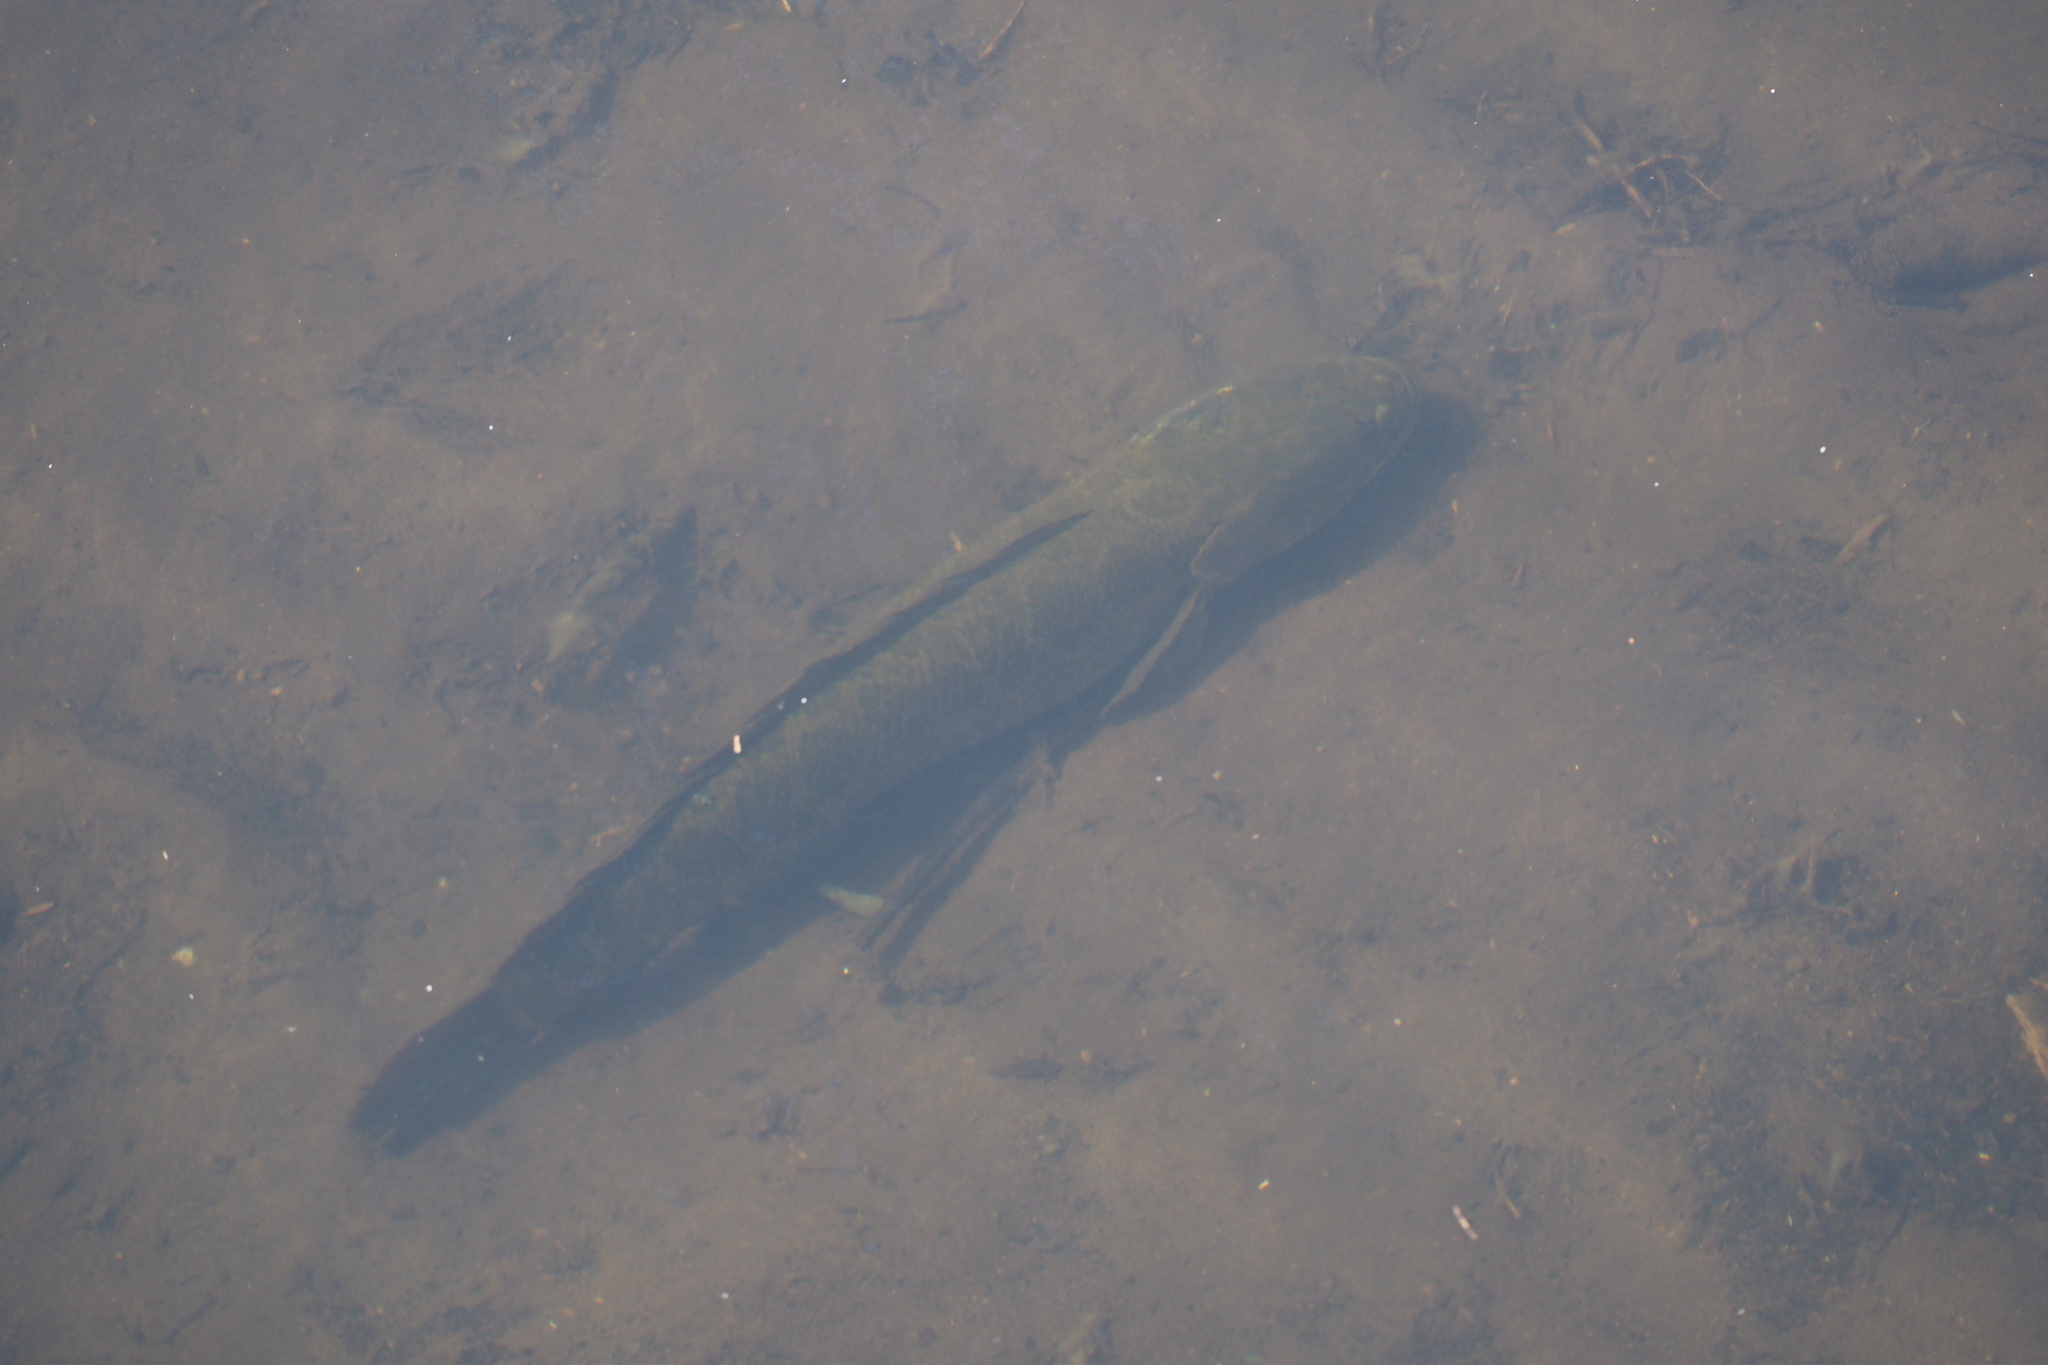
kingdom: Animalia
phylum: Chordata
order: Perciformes
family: Channidae
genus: Channa
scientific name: Channa argus
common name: Northern snakehead
